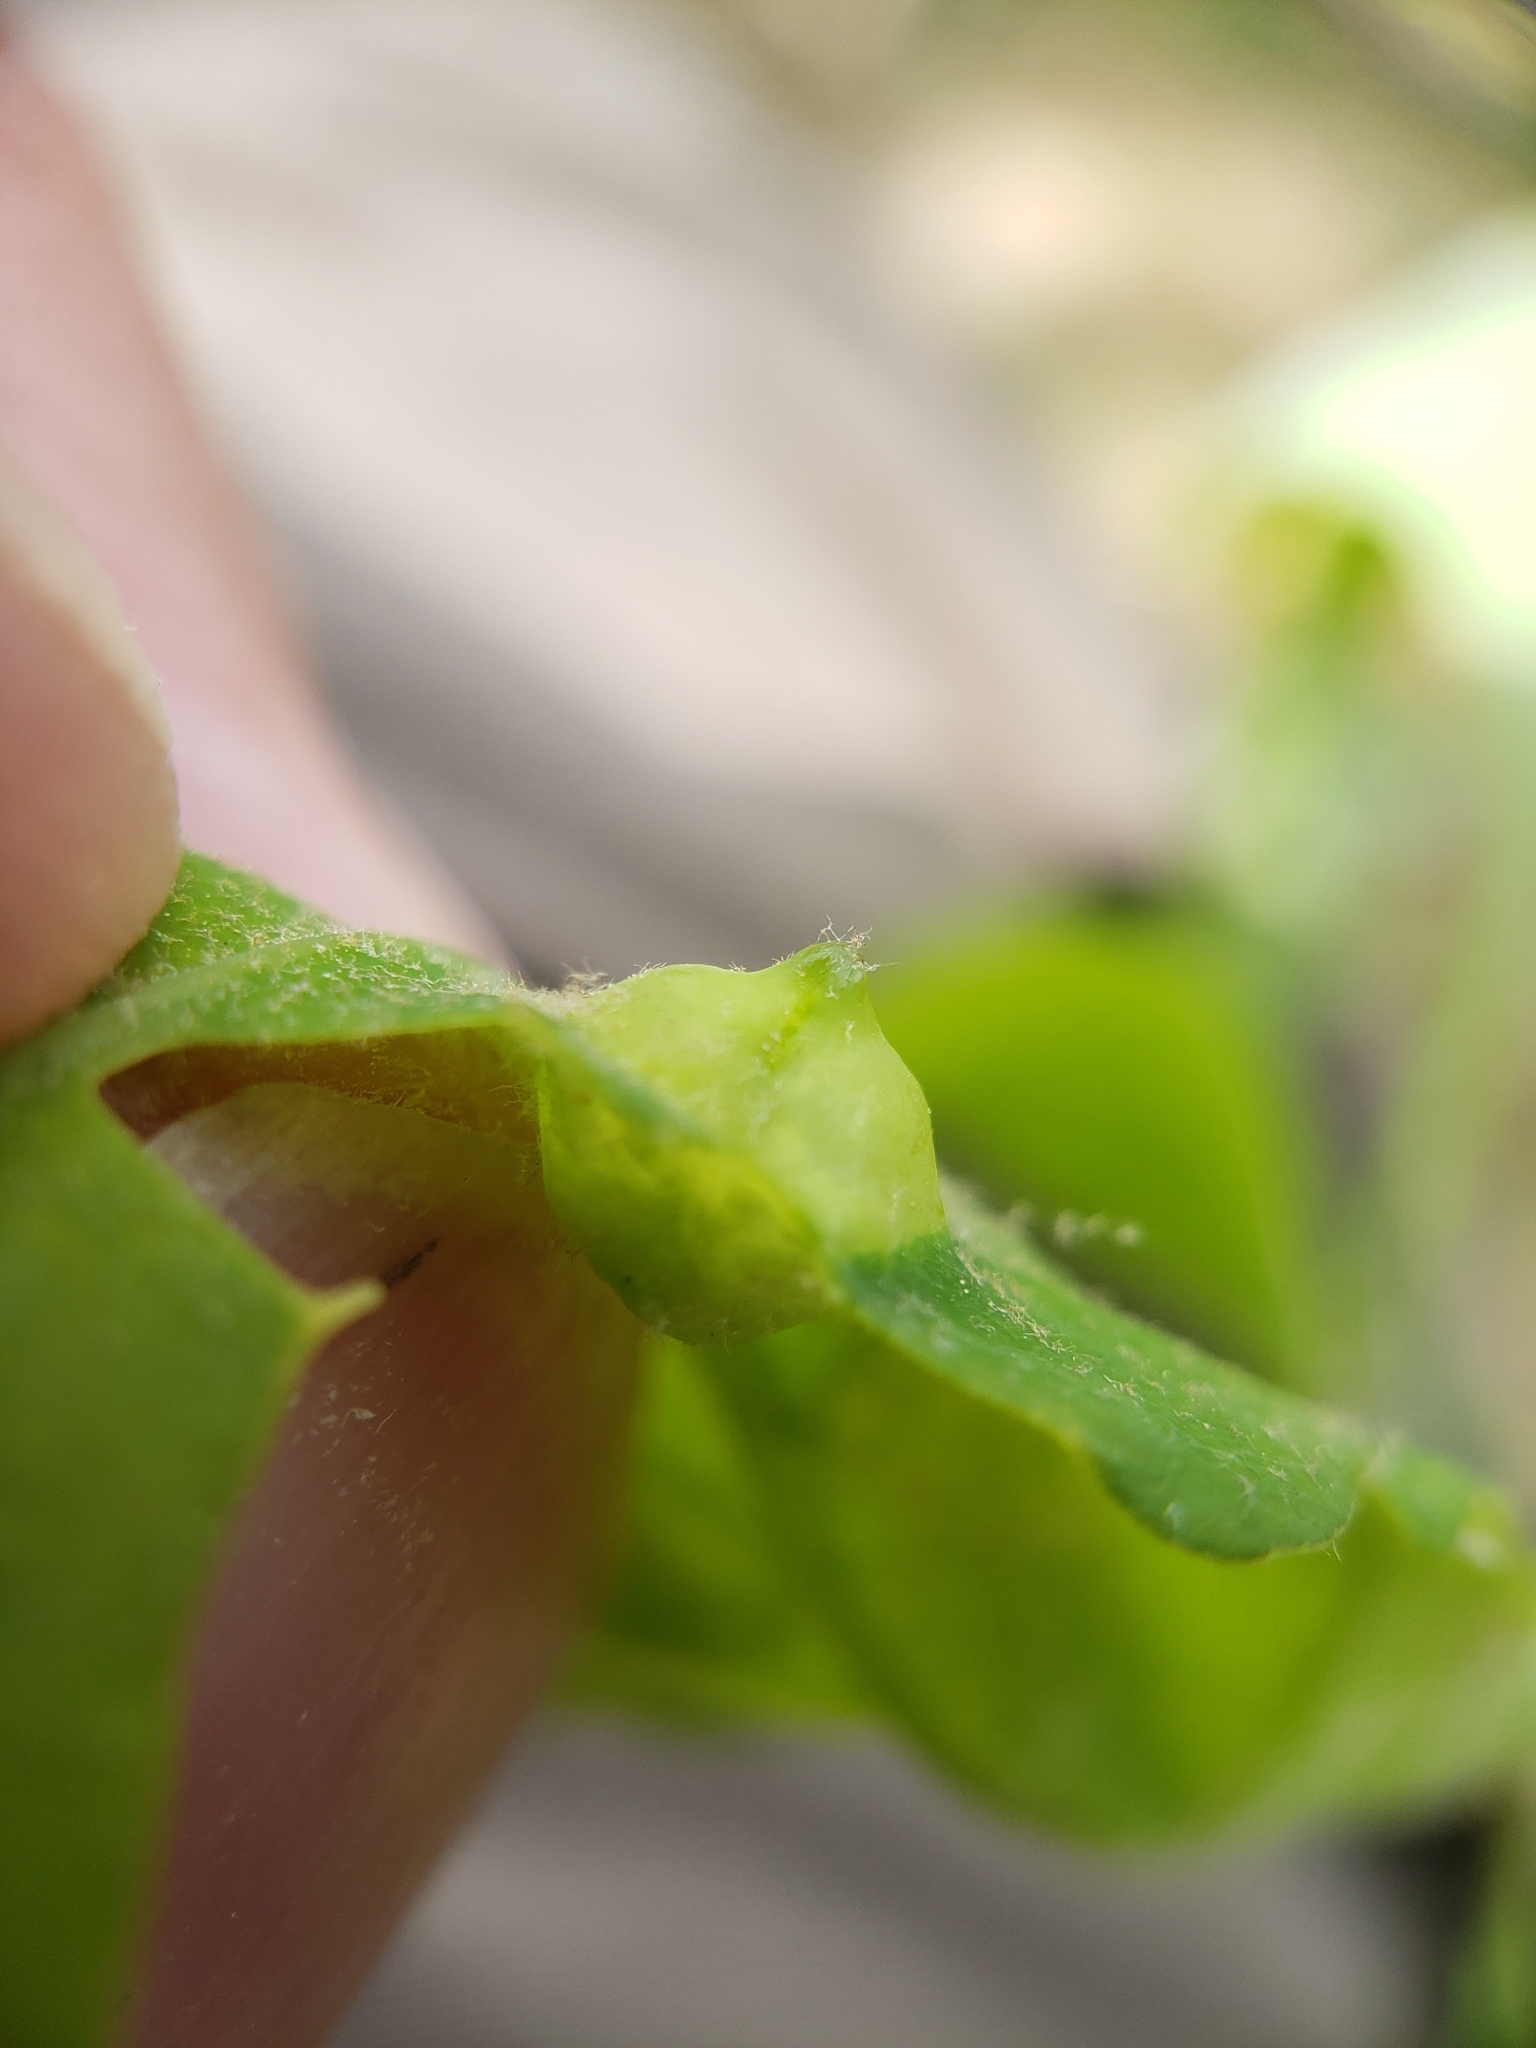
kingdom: Animalia
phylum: Arthropoda
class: Insecta
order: Hymenoptera
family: Cynipidae
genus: Callirhytis
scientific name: Callirhytis
